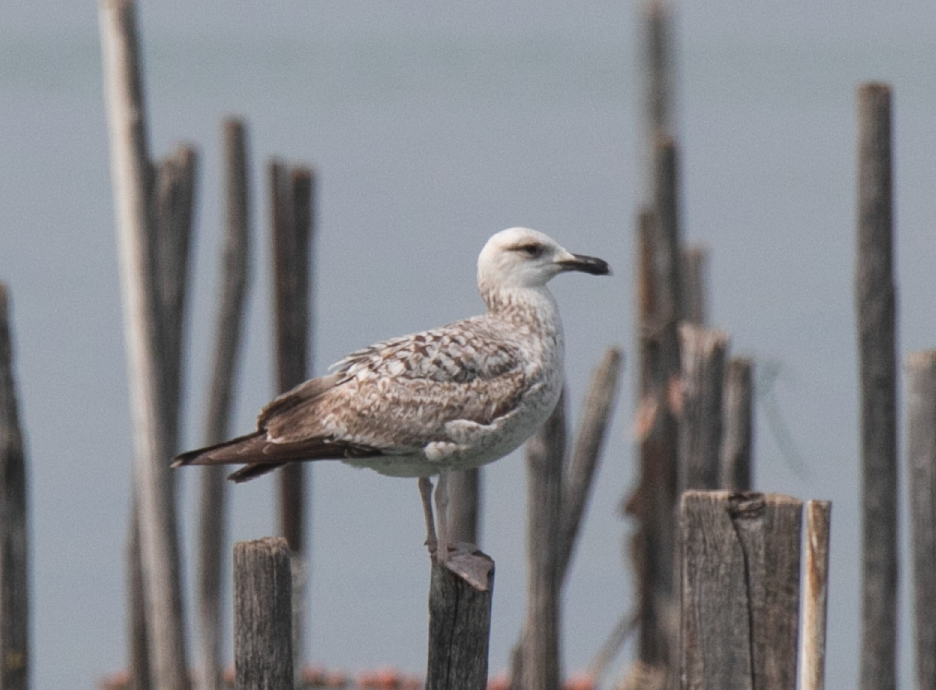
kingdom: Animalia
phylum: Chordata
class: Aves
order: Charadriiformes
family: Laridae
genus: Larus
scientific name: Larus michahellis
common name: Yellow-legged gull
